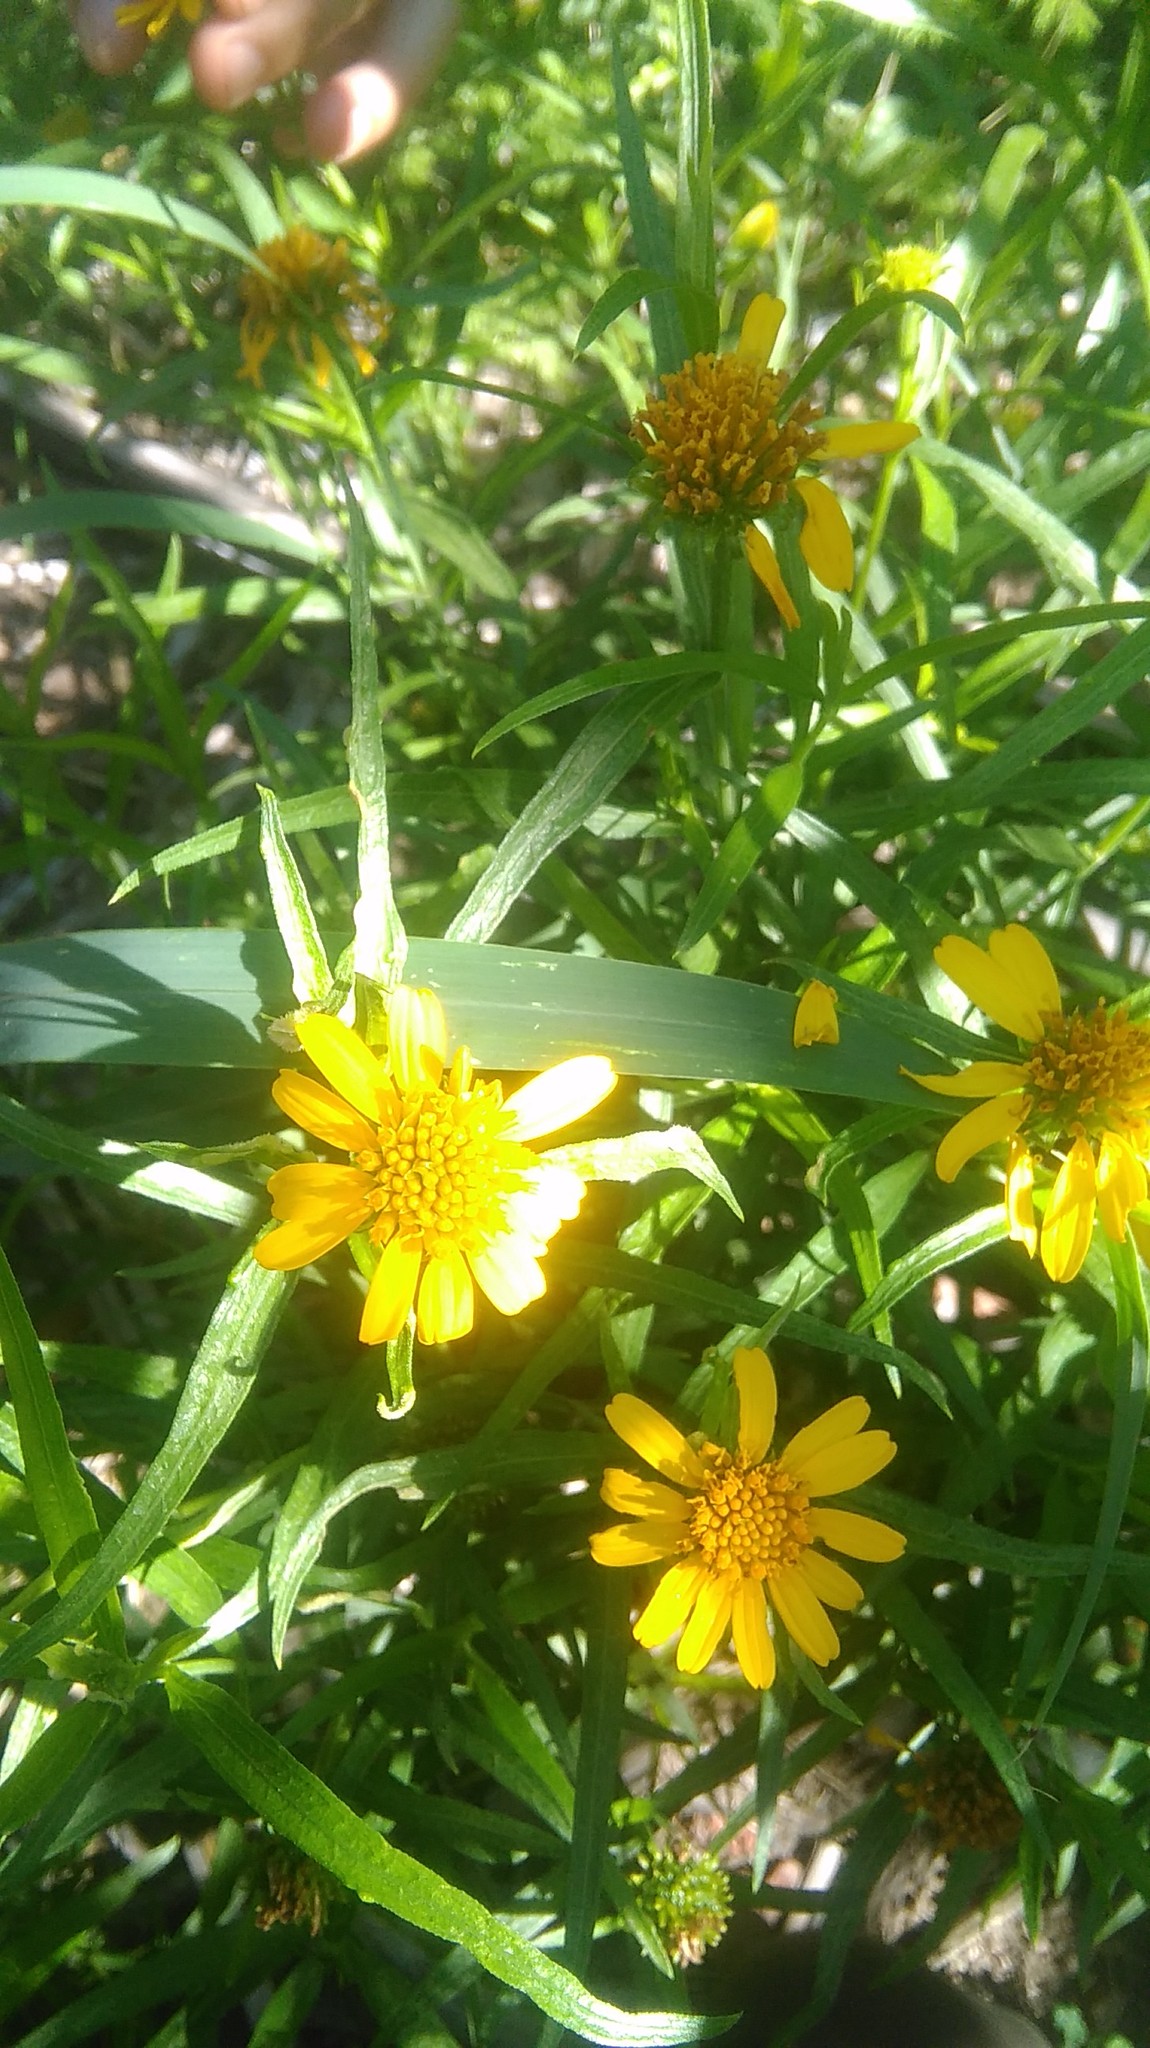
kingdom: Plantae
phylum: Tracheophyta
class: Magnoliopsida
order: Asterales
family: Asteraceae
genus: Pascalia
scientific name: Pascalia glauca
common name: Beach creeping oxeye
